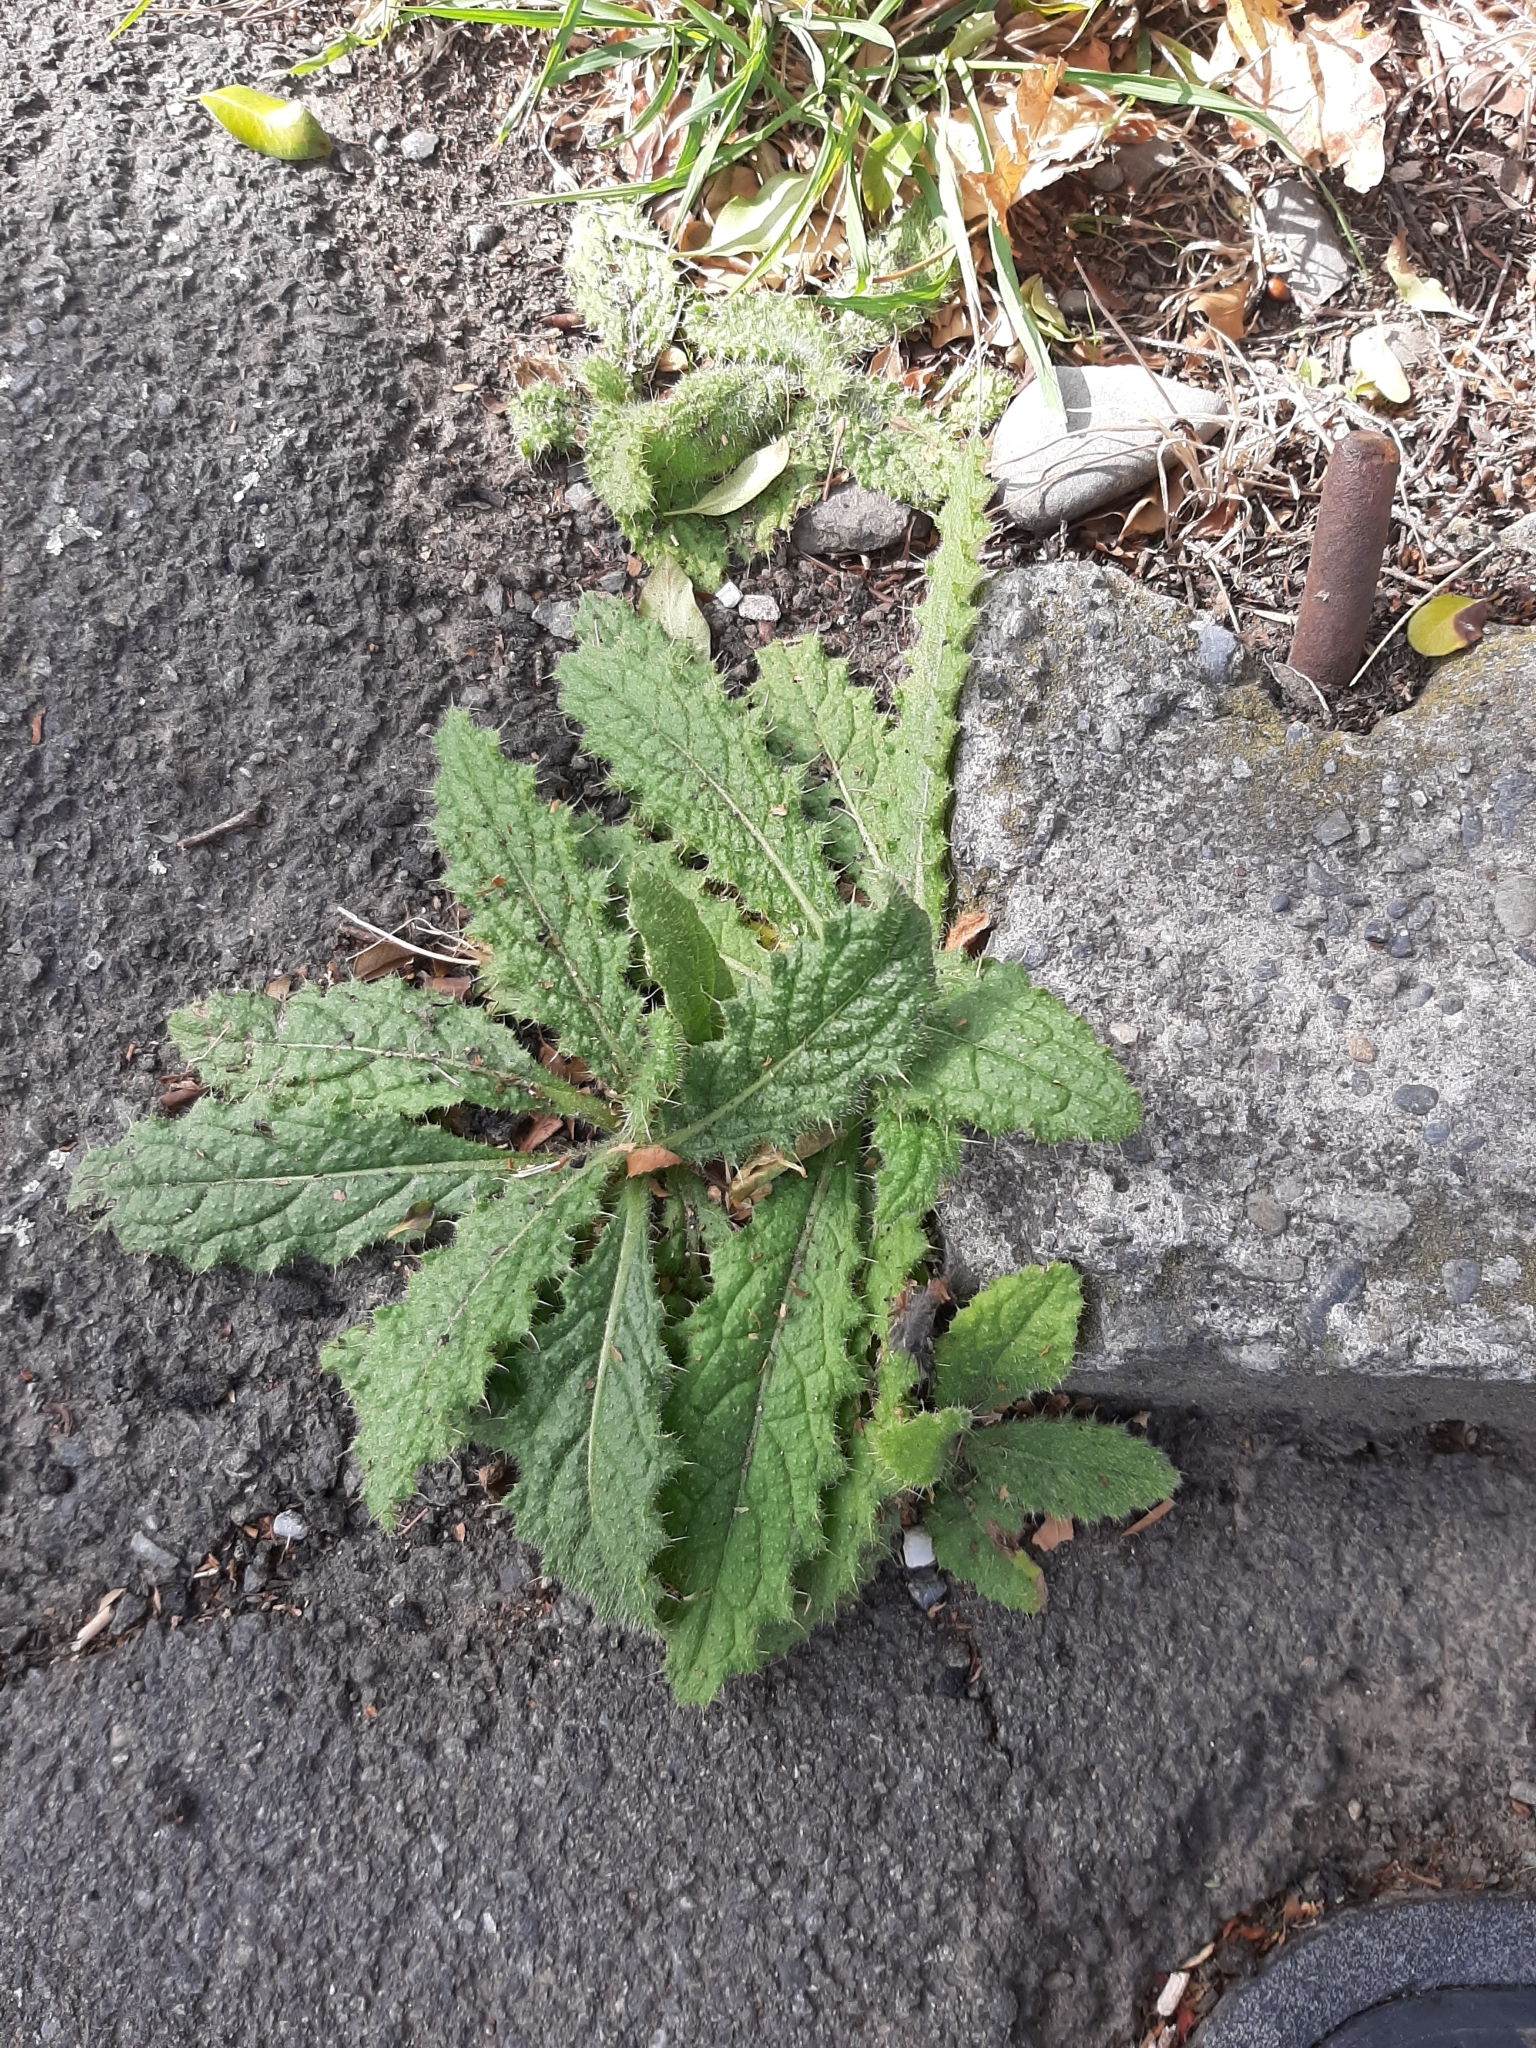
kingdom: Plantae
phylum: Tracheophyta
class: Magnoliopsida
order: Asterales
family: Asteraceae
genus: Cirsium
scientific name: Cirsium vulgare
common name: Bull thistle
